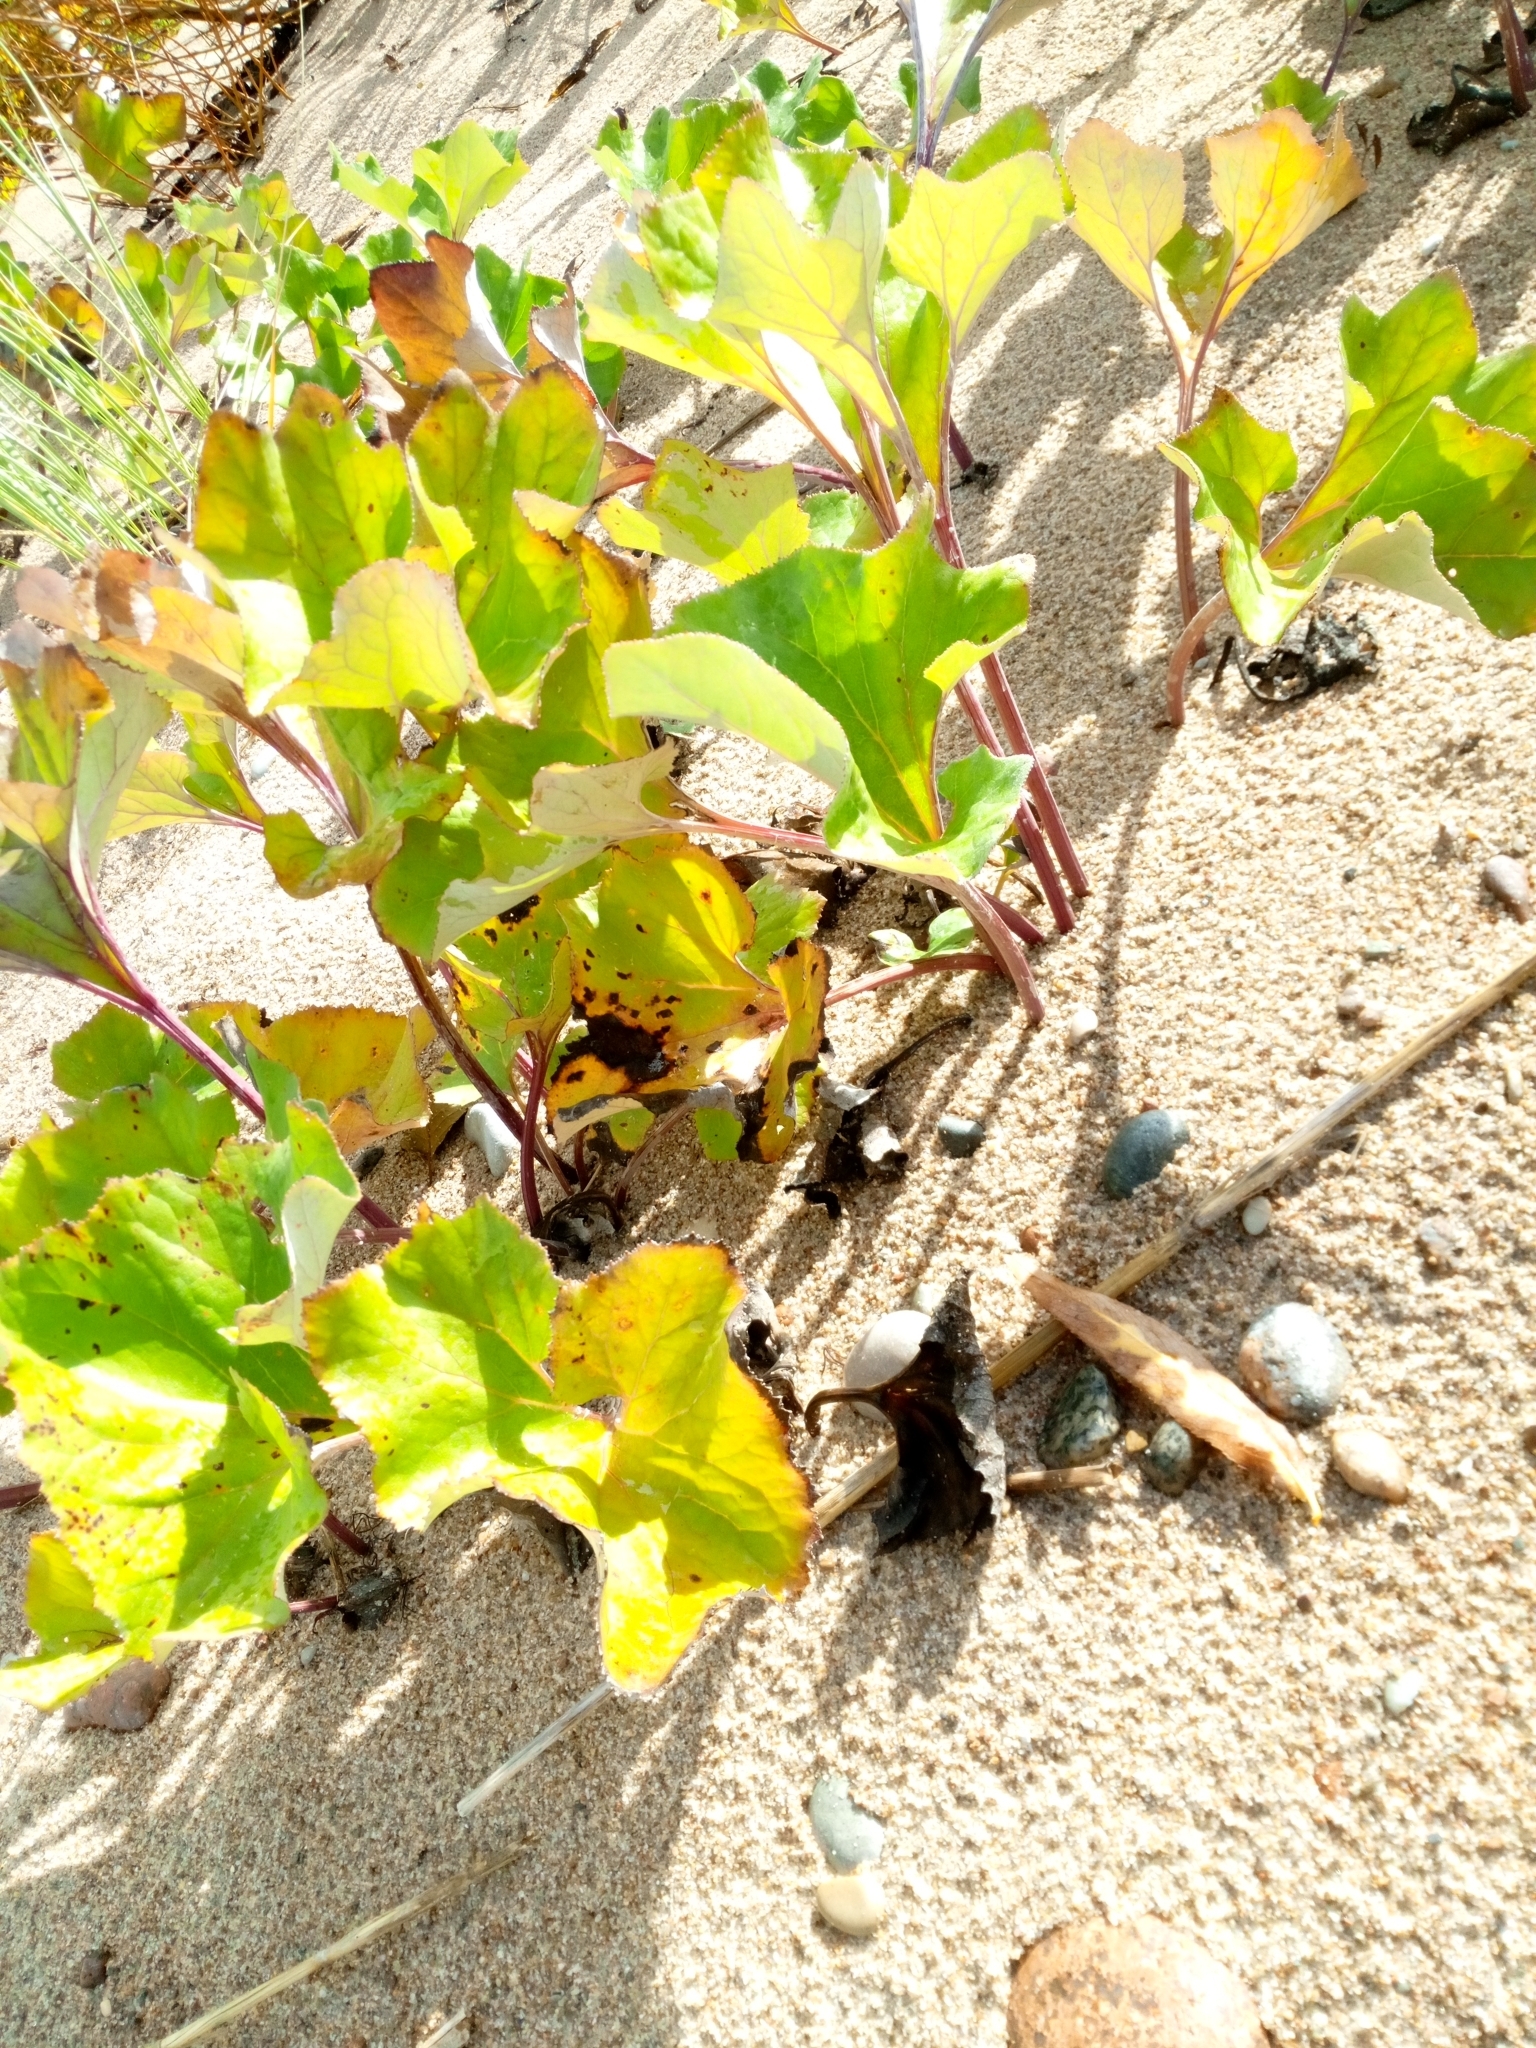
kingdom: Plantae
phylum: Tracheophyta
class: Magnoliopsida
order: Asterales
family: Asteraceae
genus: Petasites
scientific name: Petasites spurius
